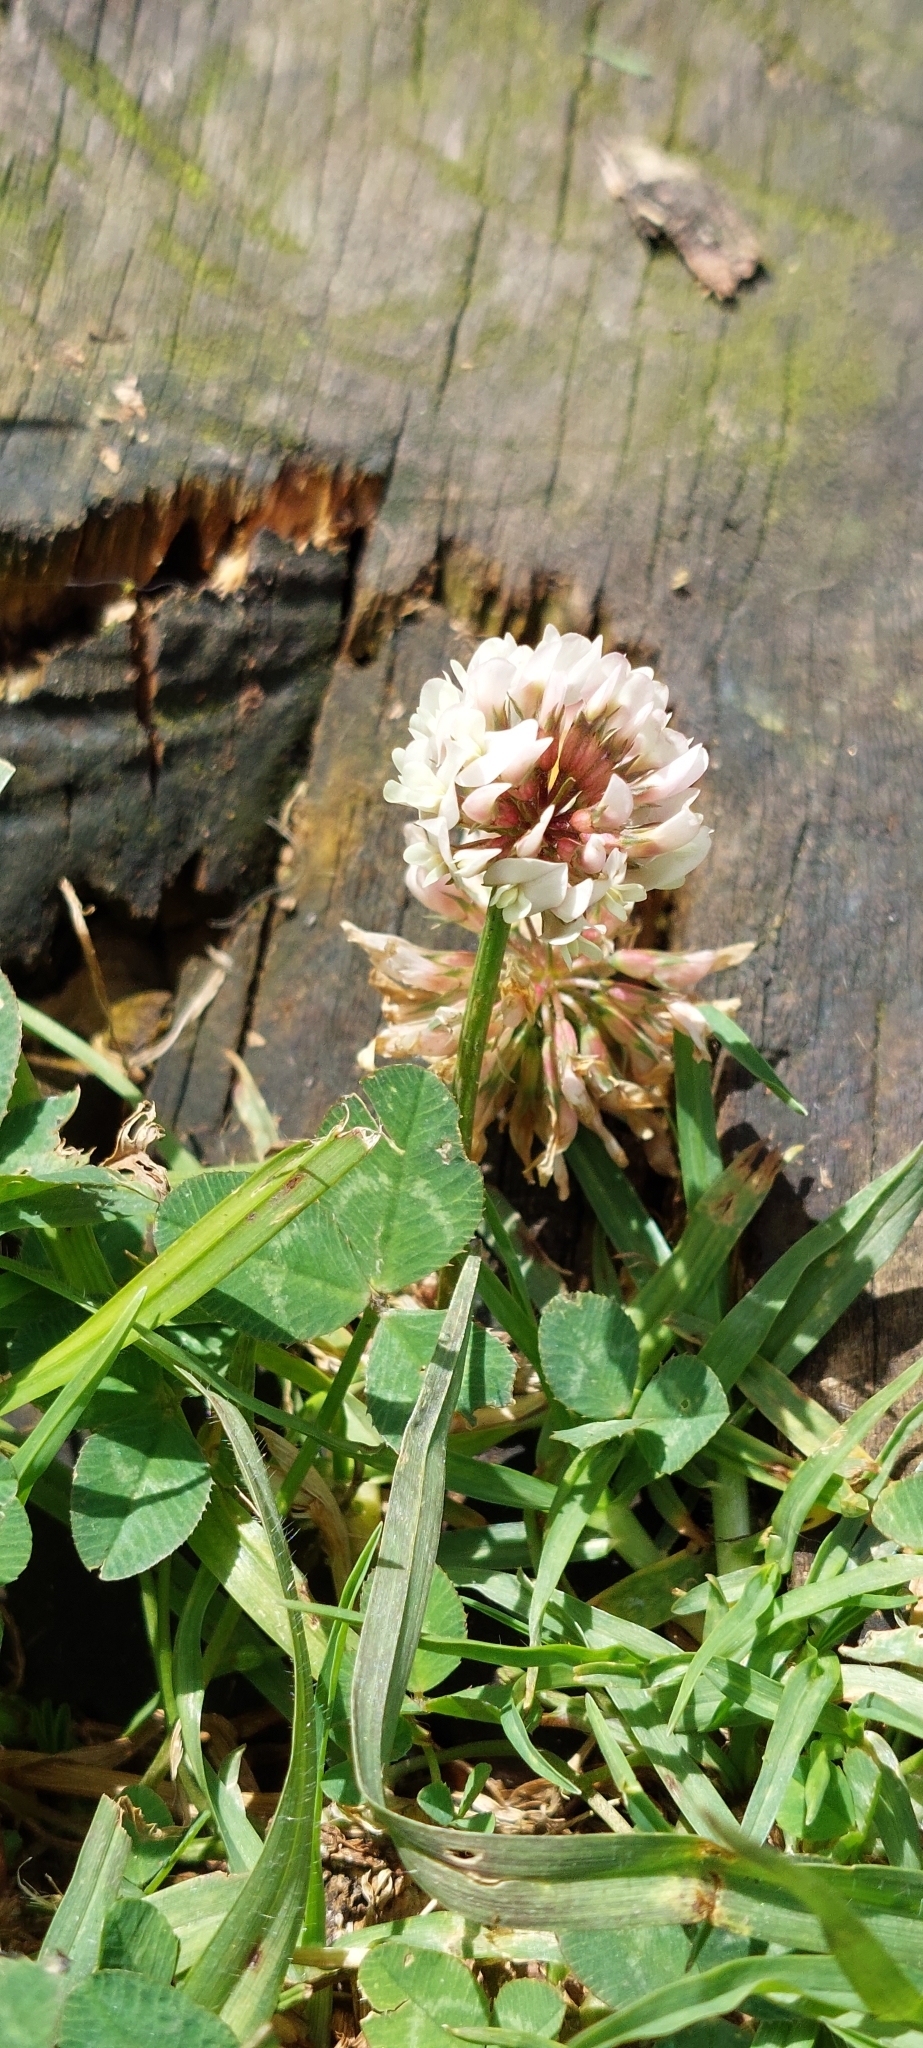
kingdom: Plantae
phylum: Tracheophyta
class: Magnoliopsida
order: Fabales
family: Fabaceae
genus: Trifolium
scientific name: Trifolium repens
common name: White clover
